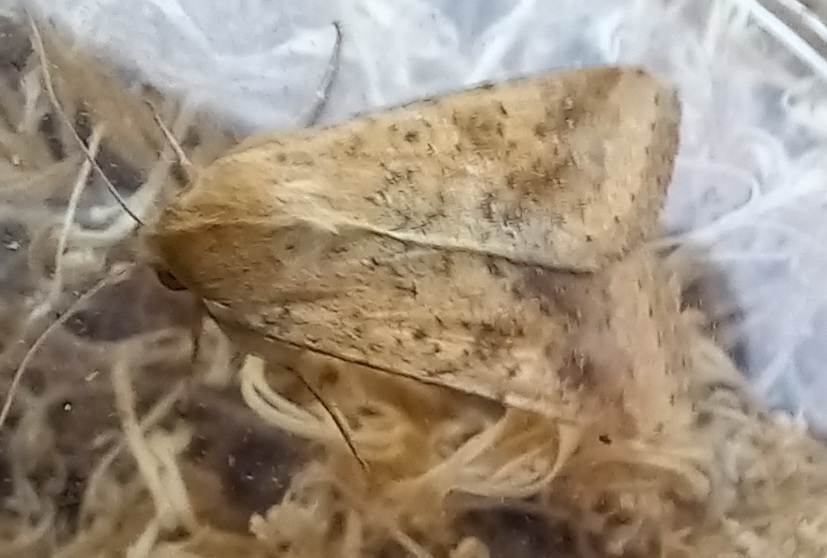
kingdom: Animalia
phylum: Arthropoda
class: Insecta
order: Lepidoptera
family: Noctuidae
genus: Helicoverpa
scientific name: Helicoverpa armigera
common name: Cotton bollworm
